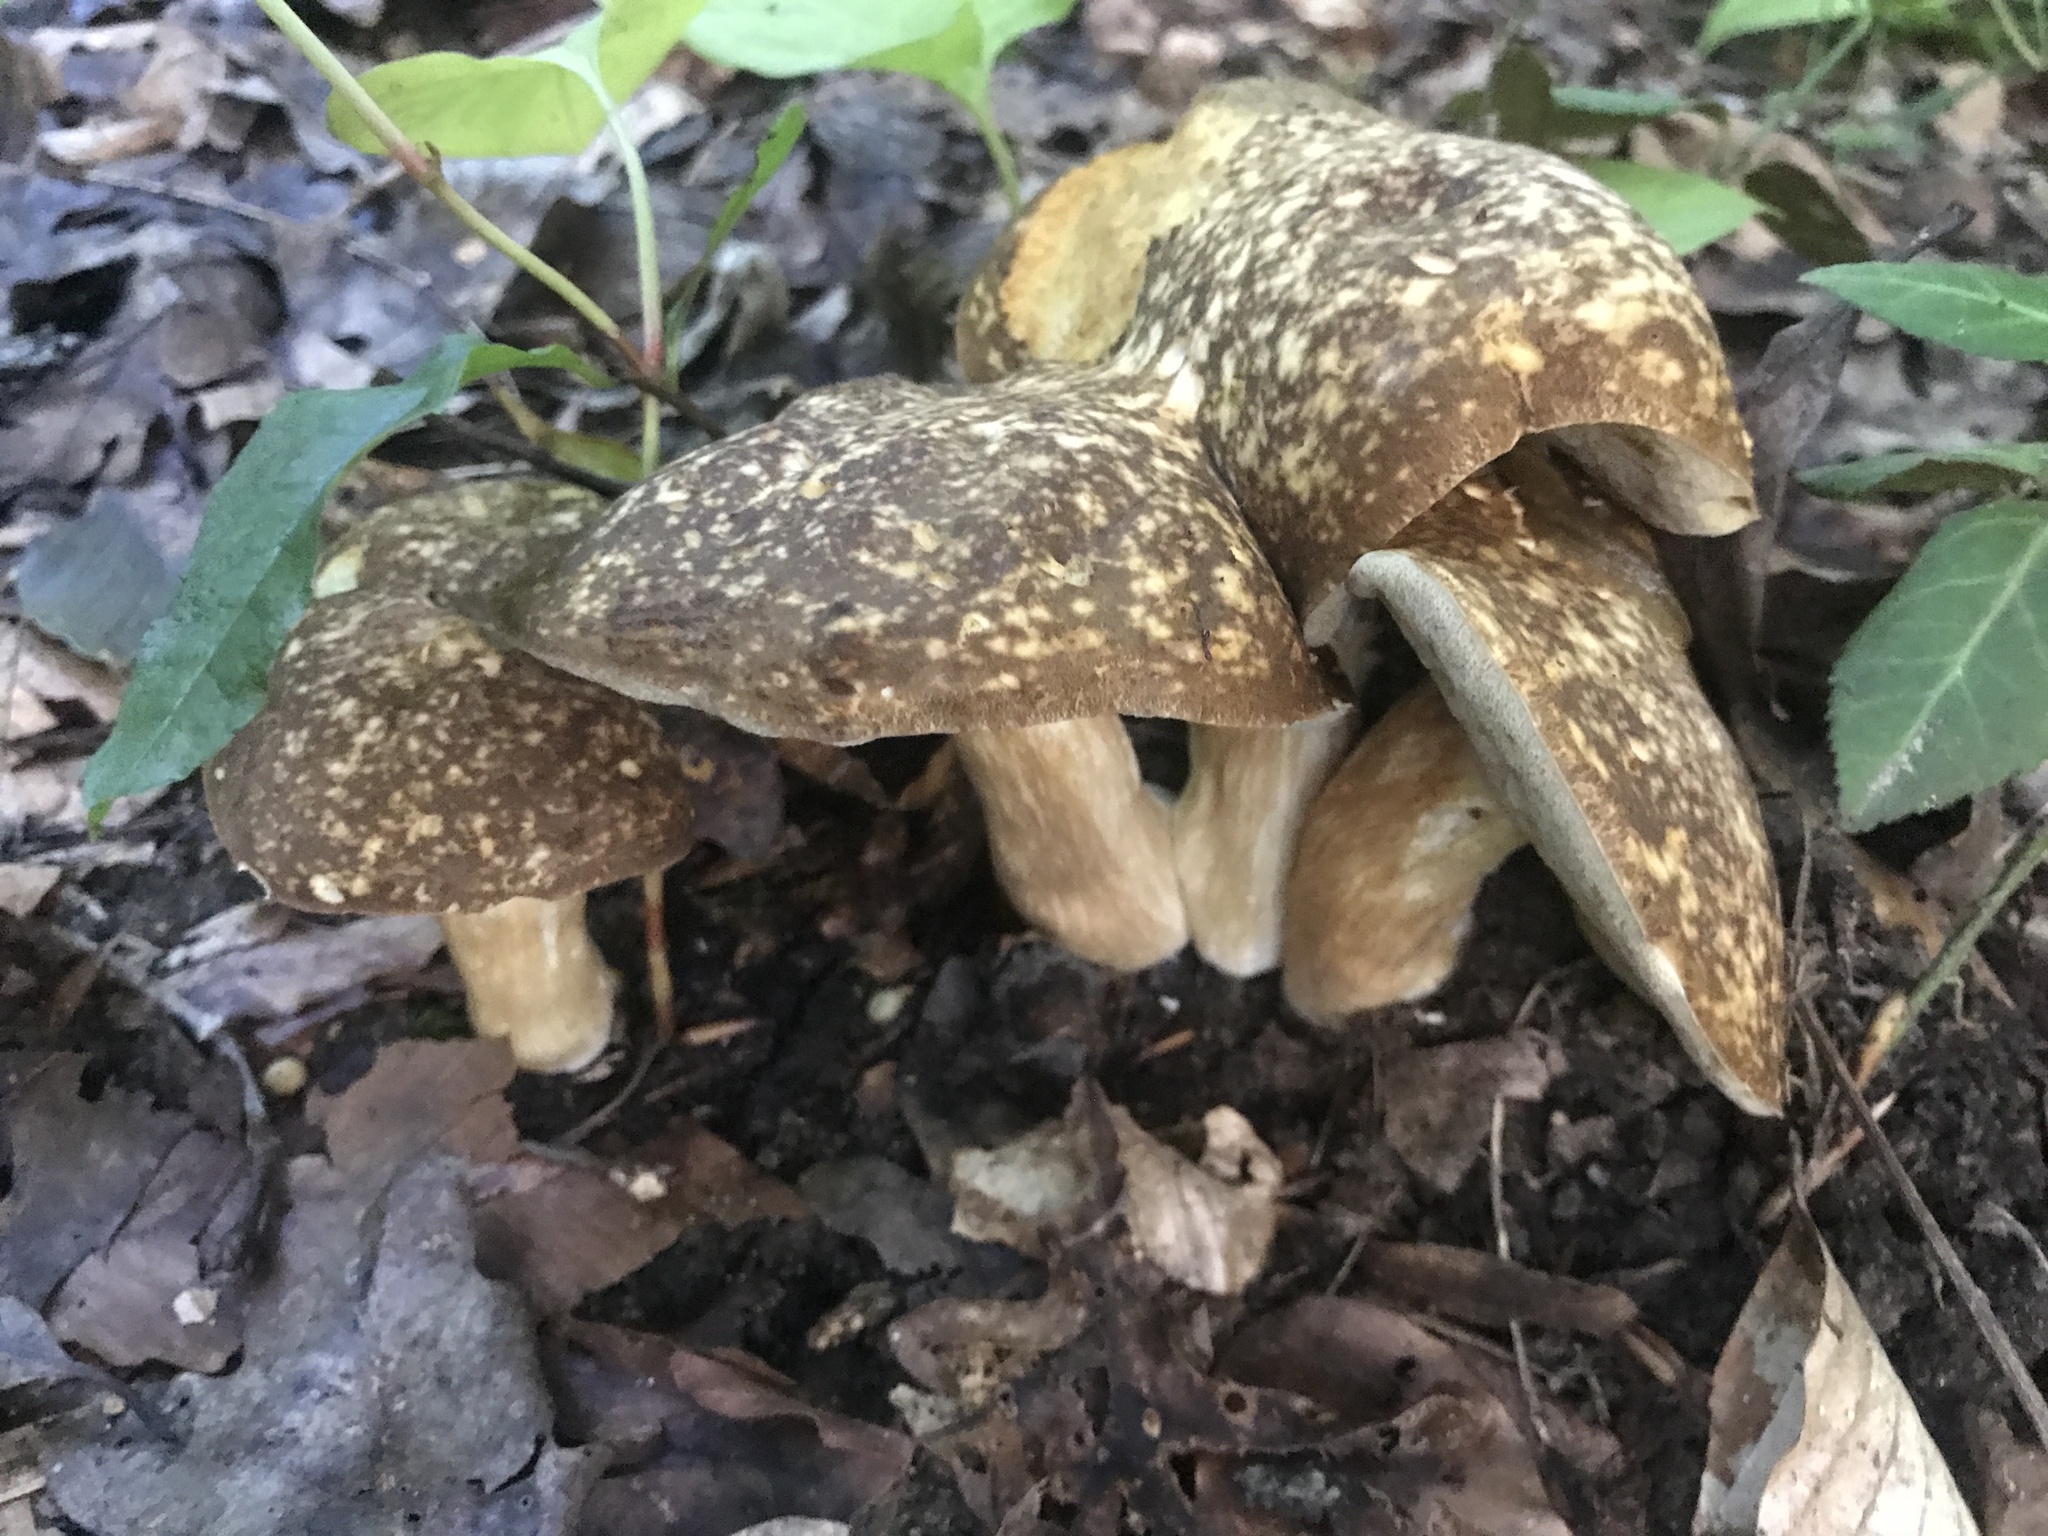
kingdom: Fungi
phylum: Basidiomycota
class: Agaricomycetes
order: Boletales
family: Boletaceae
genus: Xanthoconium
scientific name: Xanthoconium affine
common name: Spotted bolete
